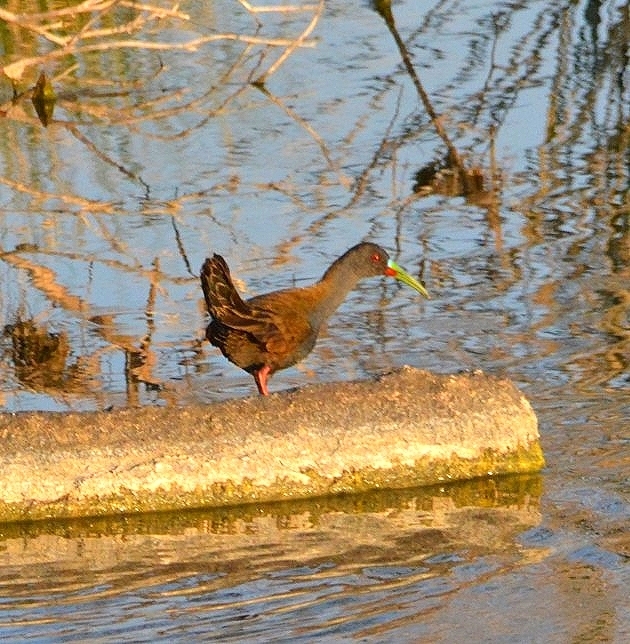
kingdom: Animalia
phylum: Chordata
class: Aves
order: Gruiformes
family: Rallidae
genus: Pardirallus
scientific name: Pardirallus sanguinolentus
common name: Plumbeous rail
